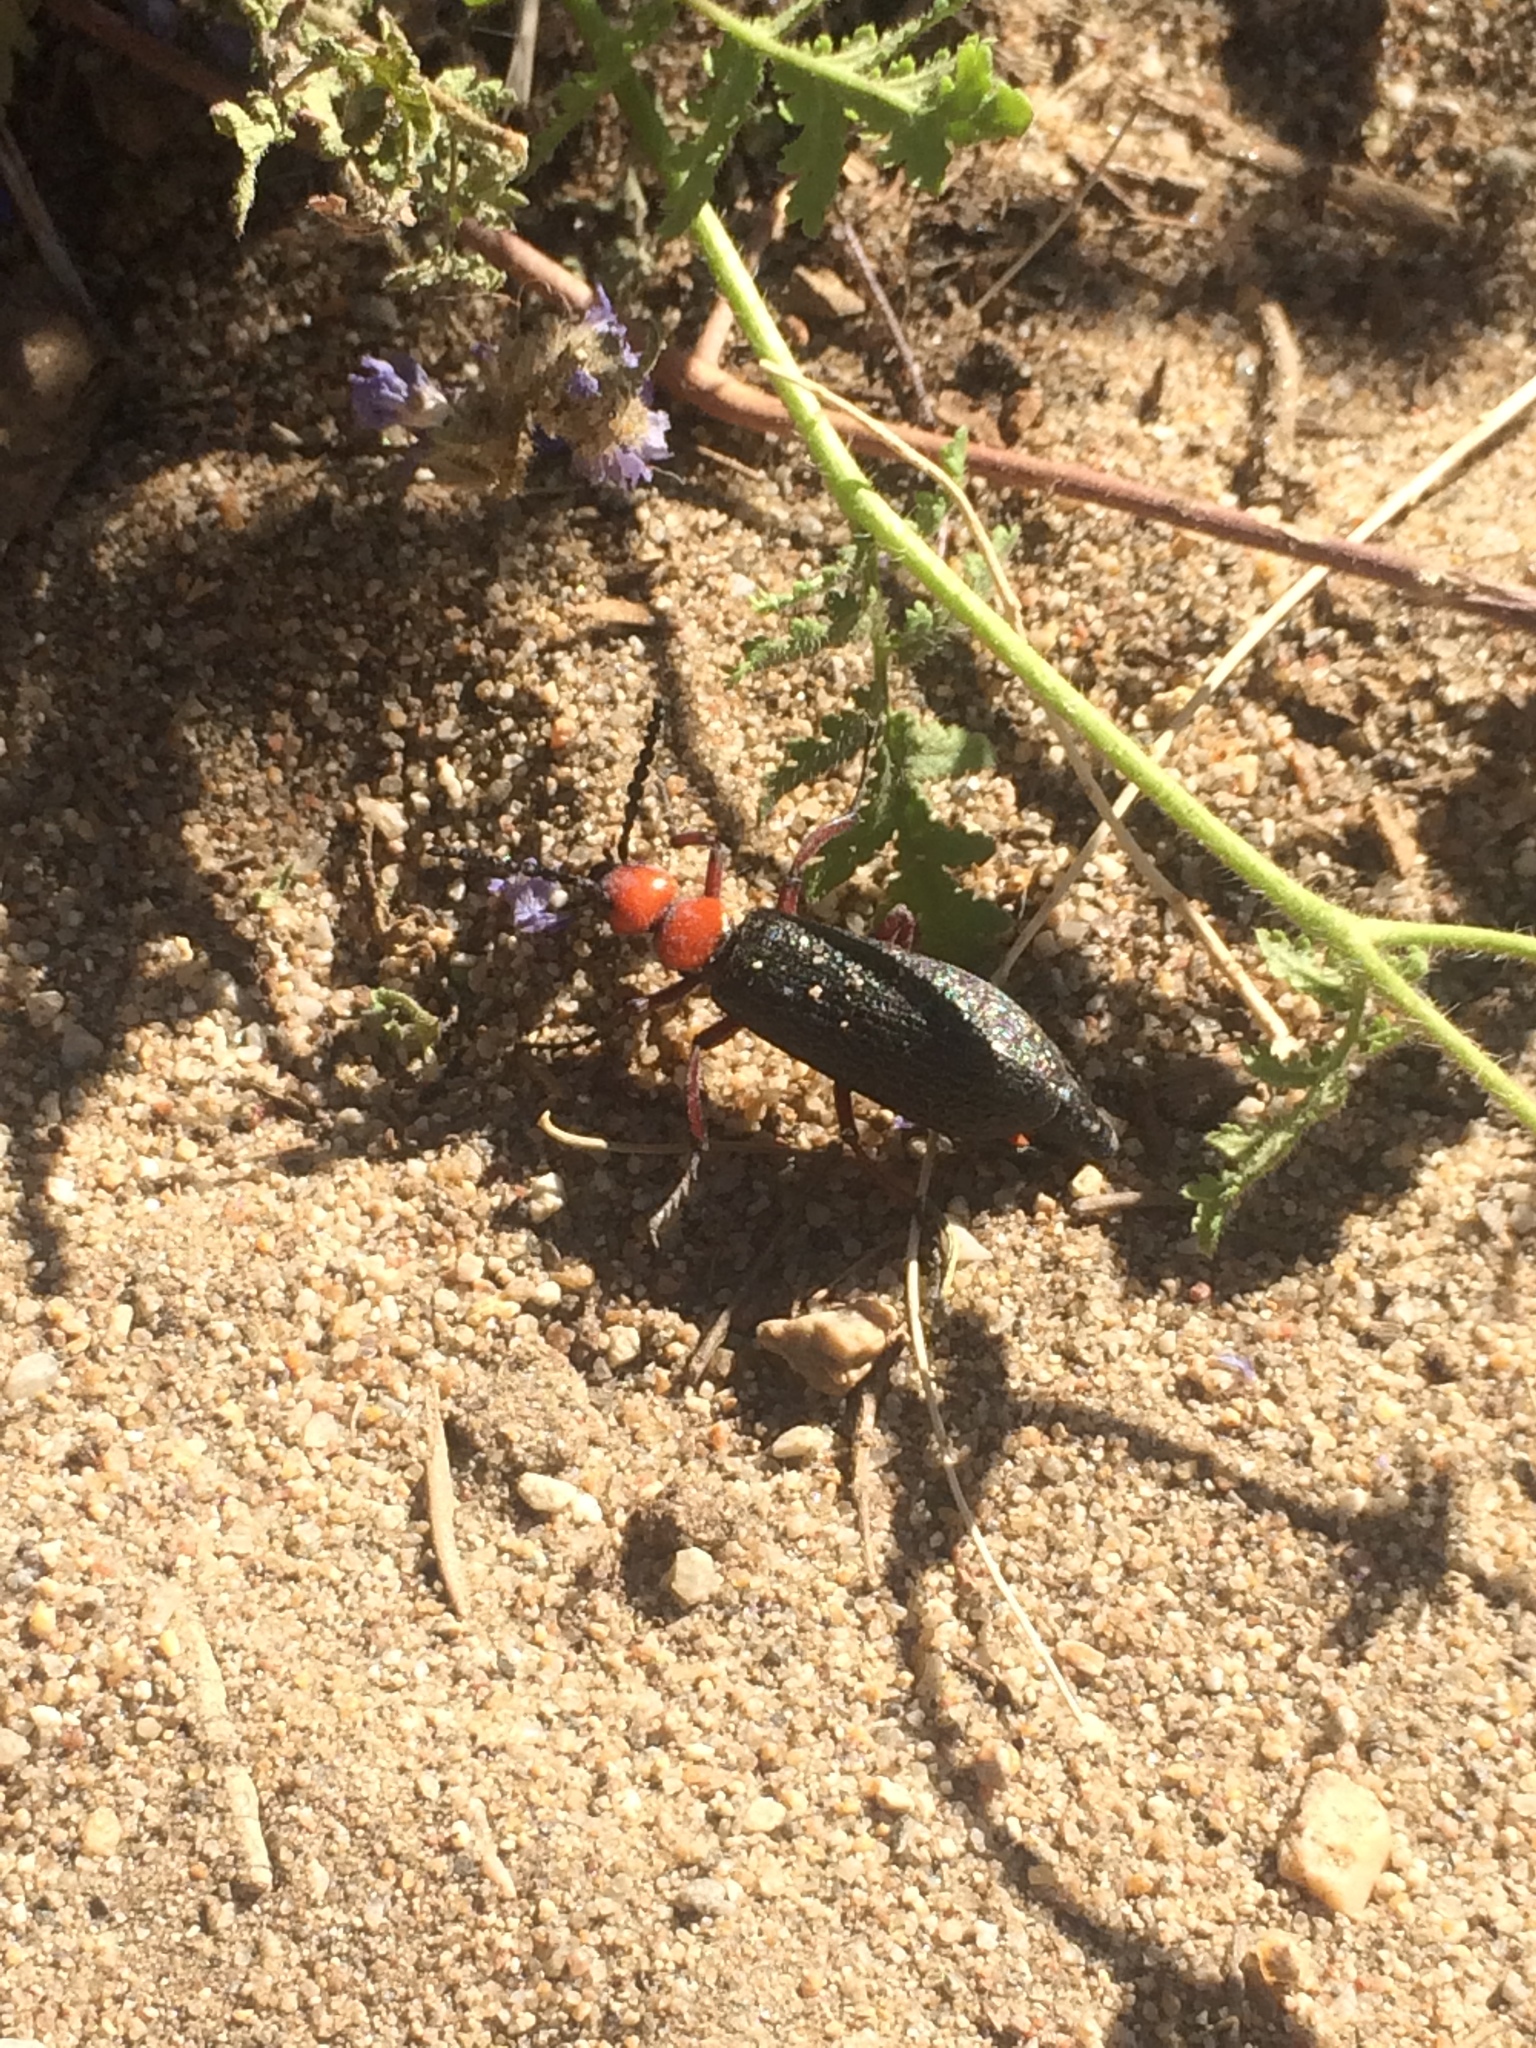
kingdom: Animalia
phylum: Arthropoda
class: Insecta
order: Coleoptera
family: Meloidae
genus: Lytta
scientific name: Lytta magister
